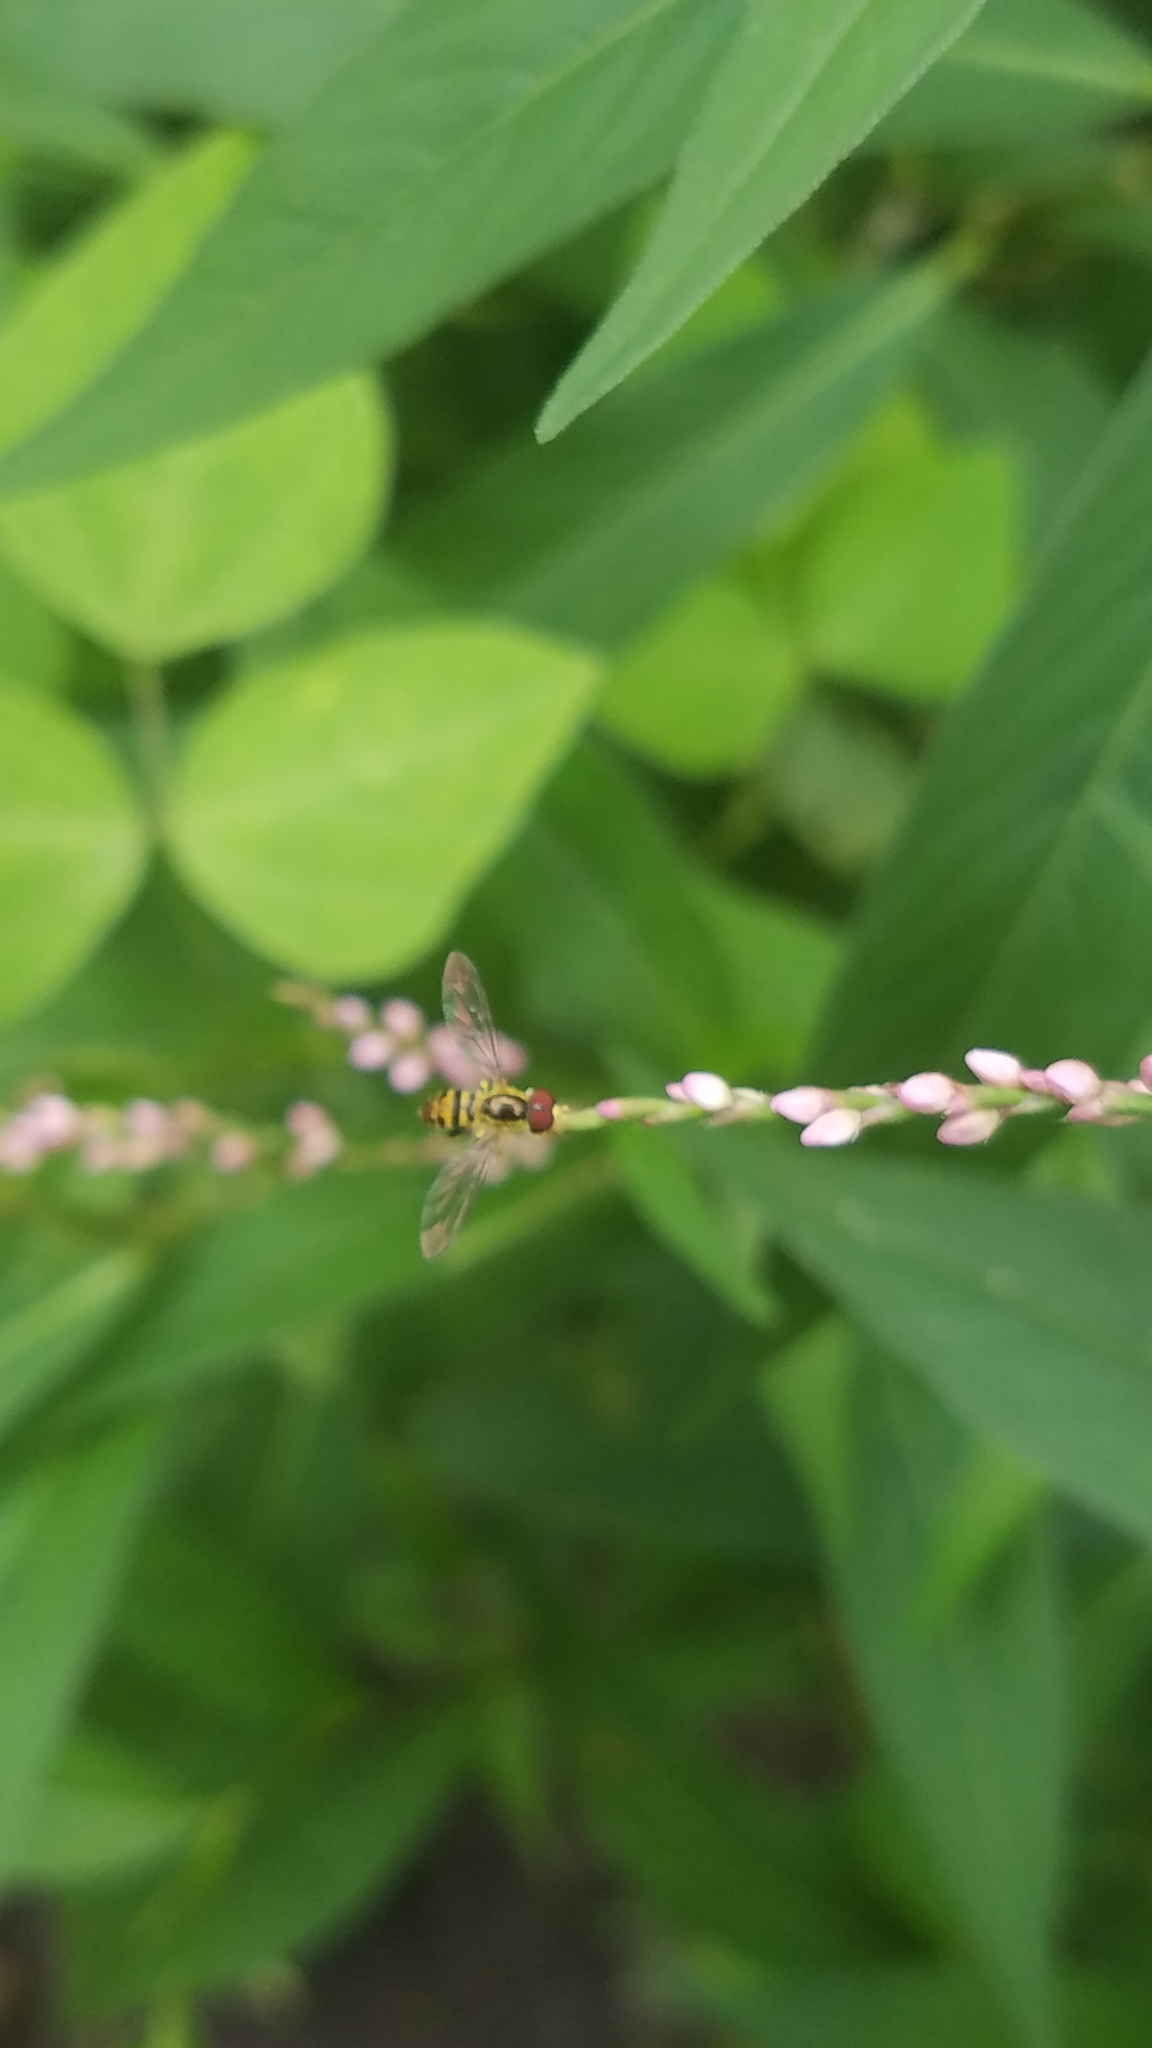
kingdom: Animalia
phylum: Arthropoda
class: Insecta
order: Diptera
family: Syrphidae
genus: Toxomerus
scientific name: Toxomerus geminatus
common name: Eastern calligrapher
